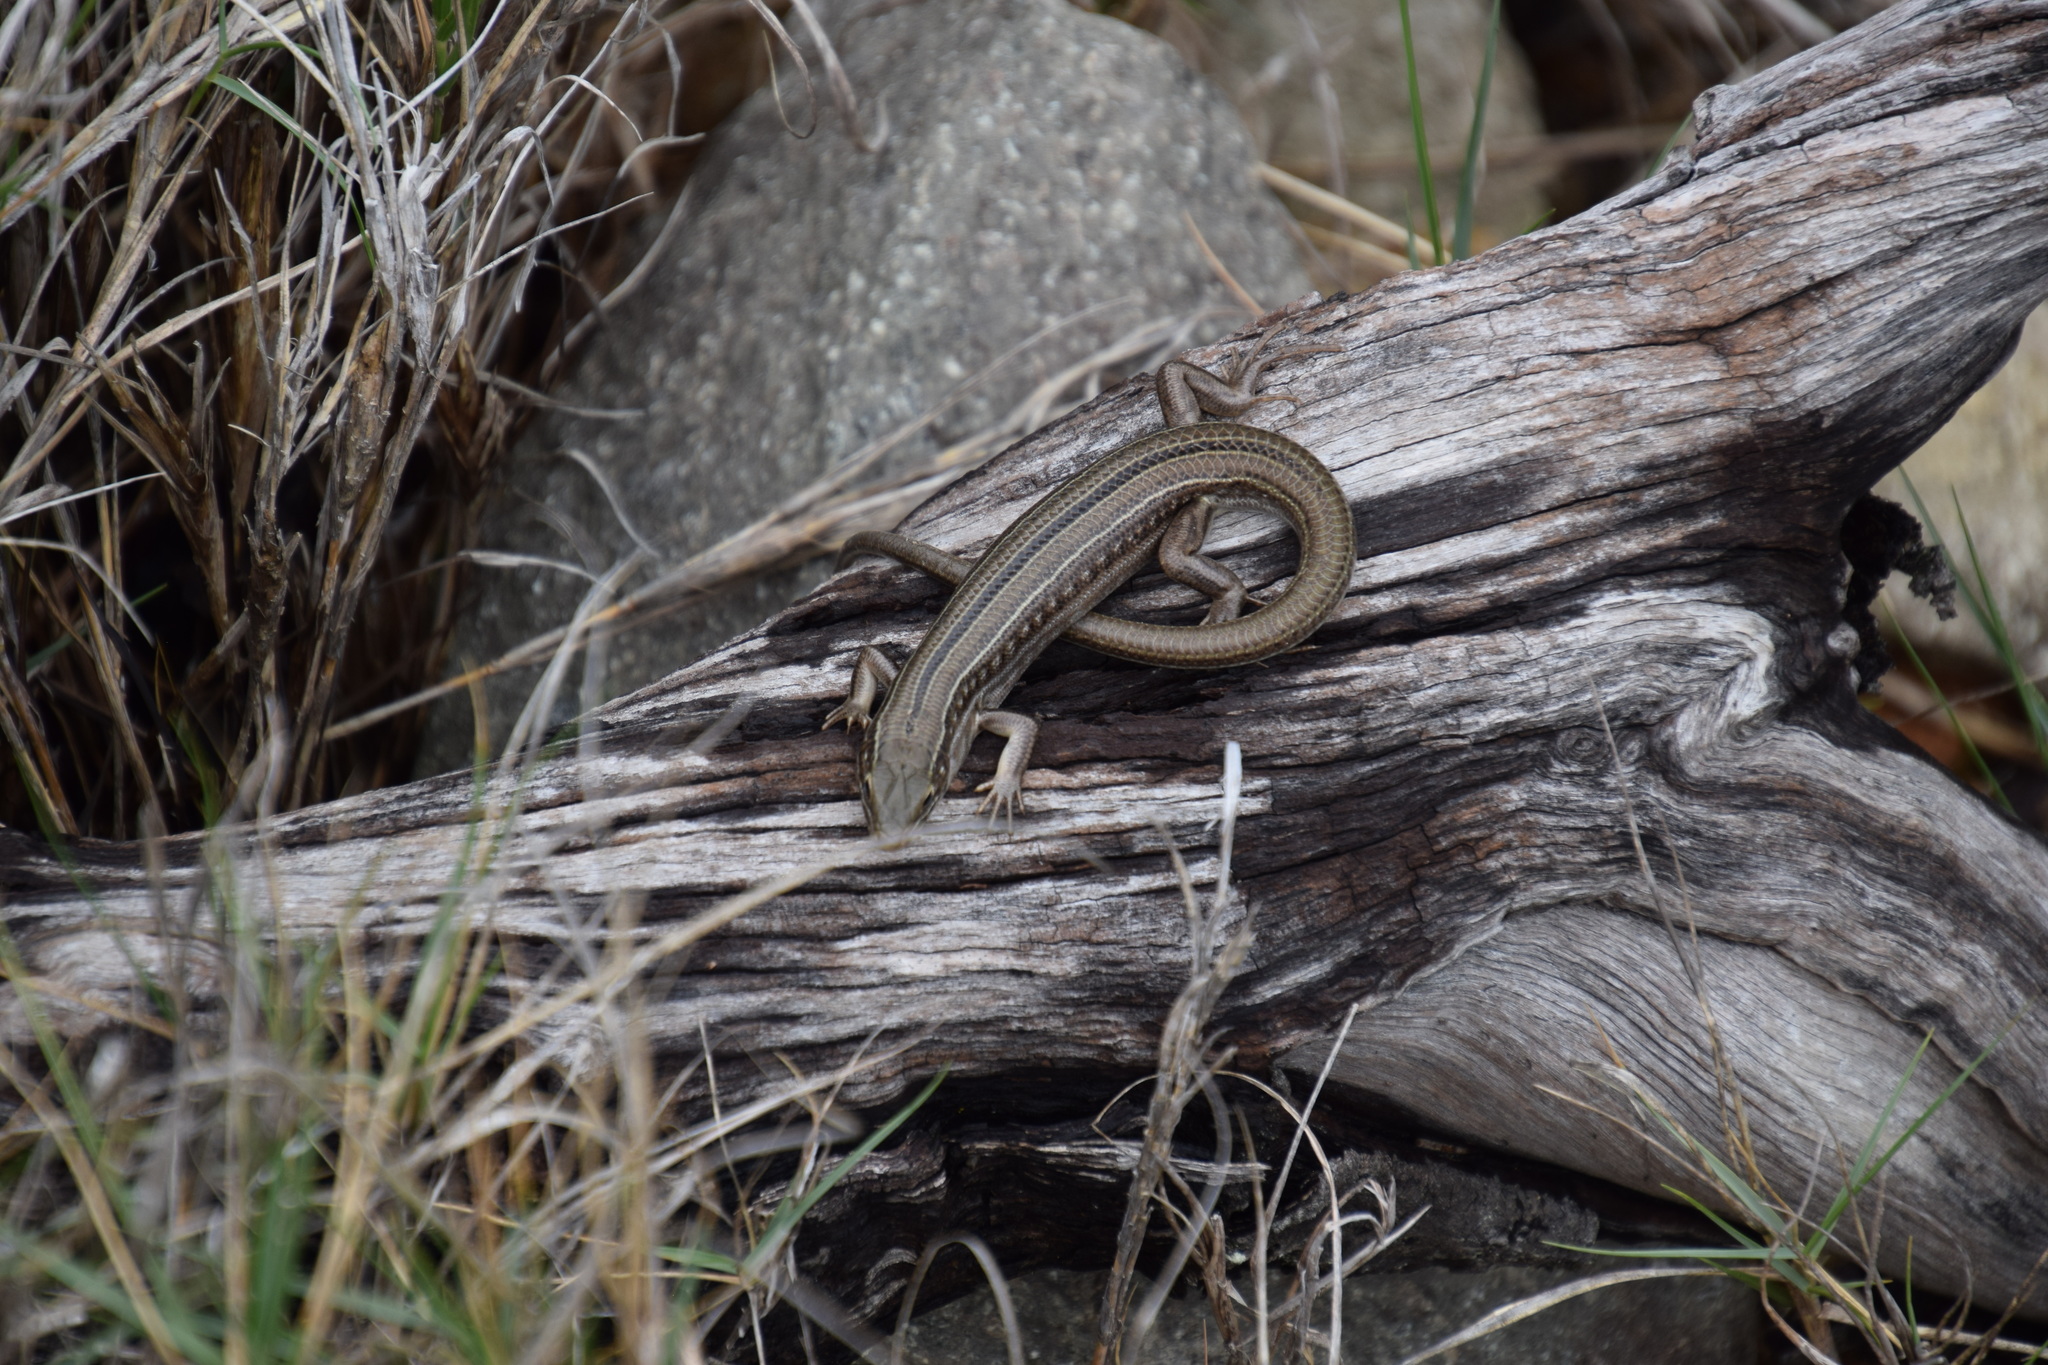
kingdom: Animalia
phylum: Chordata
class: Squamata
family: Scincidae
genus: Ctenotus
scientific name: Ctenotus robustus
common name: Robust ctenotus
